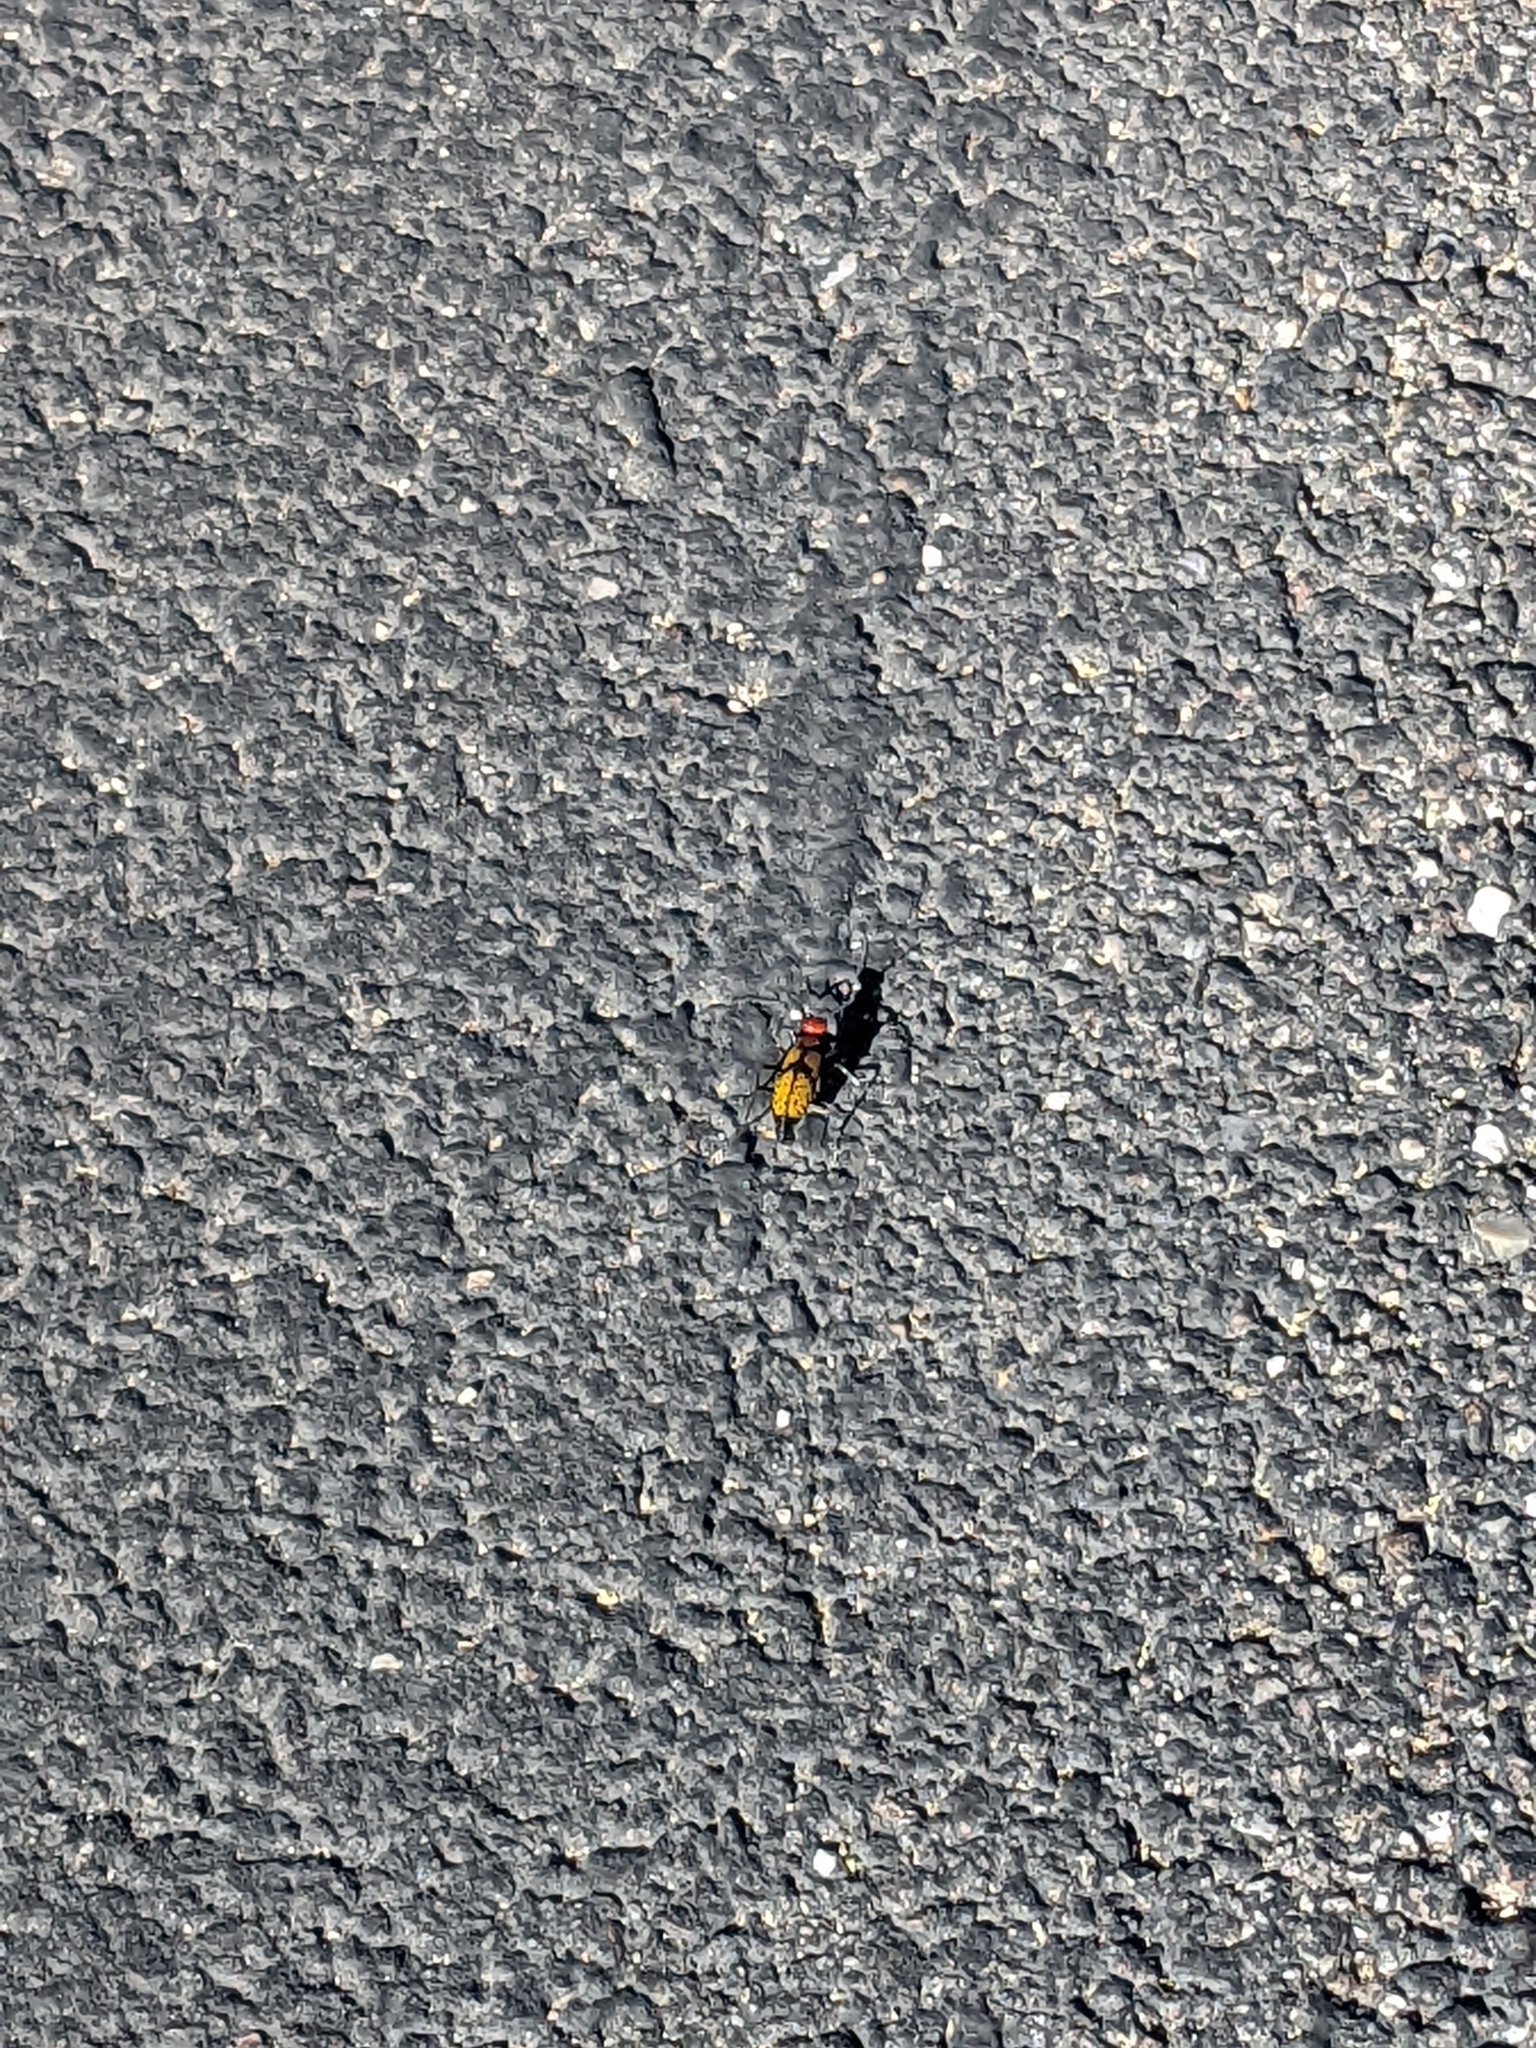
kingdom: Animalia
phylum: Arthropoda
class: Insecta
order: Coleoptera
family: Meloidae
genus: Tegrodera
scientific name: Tegrodera aloga
